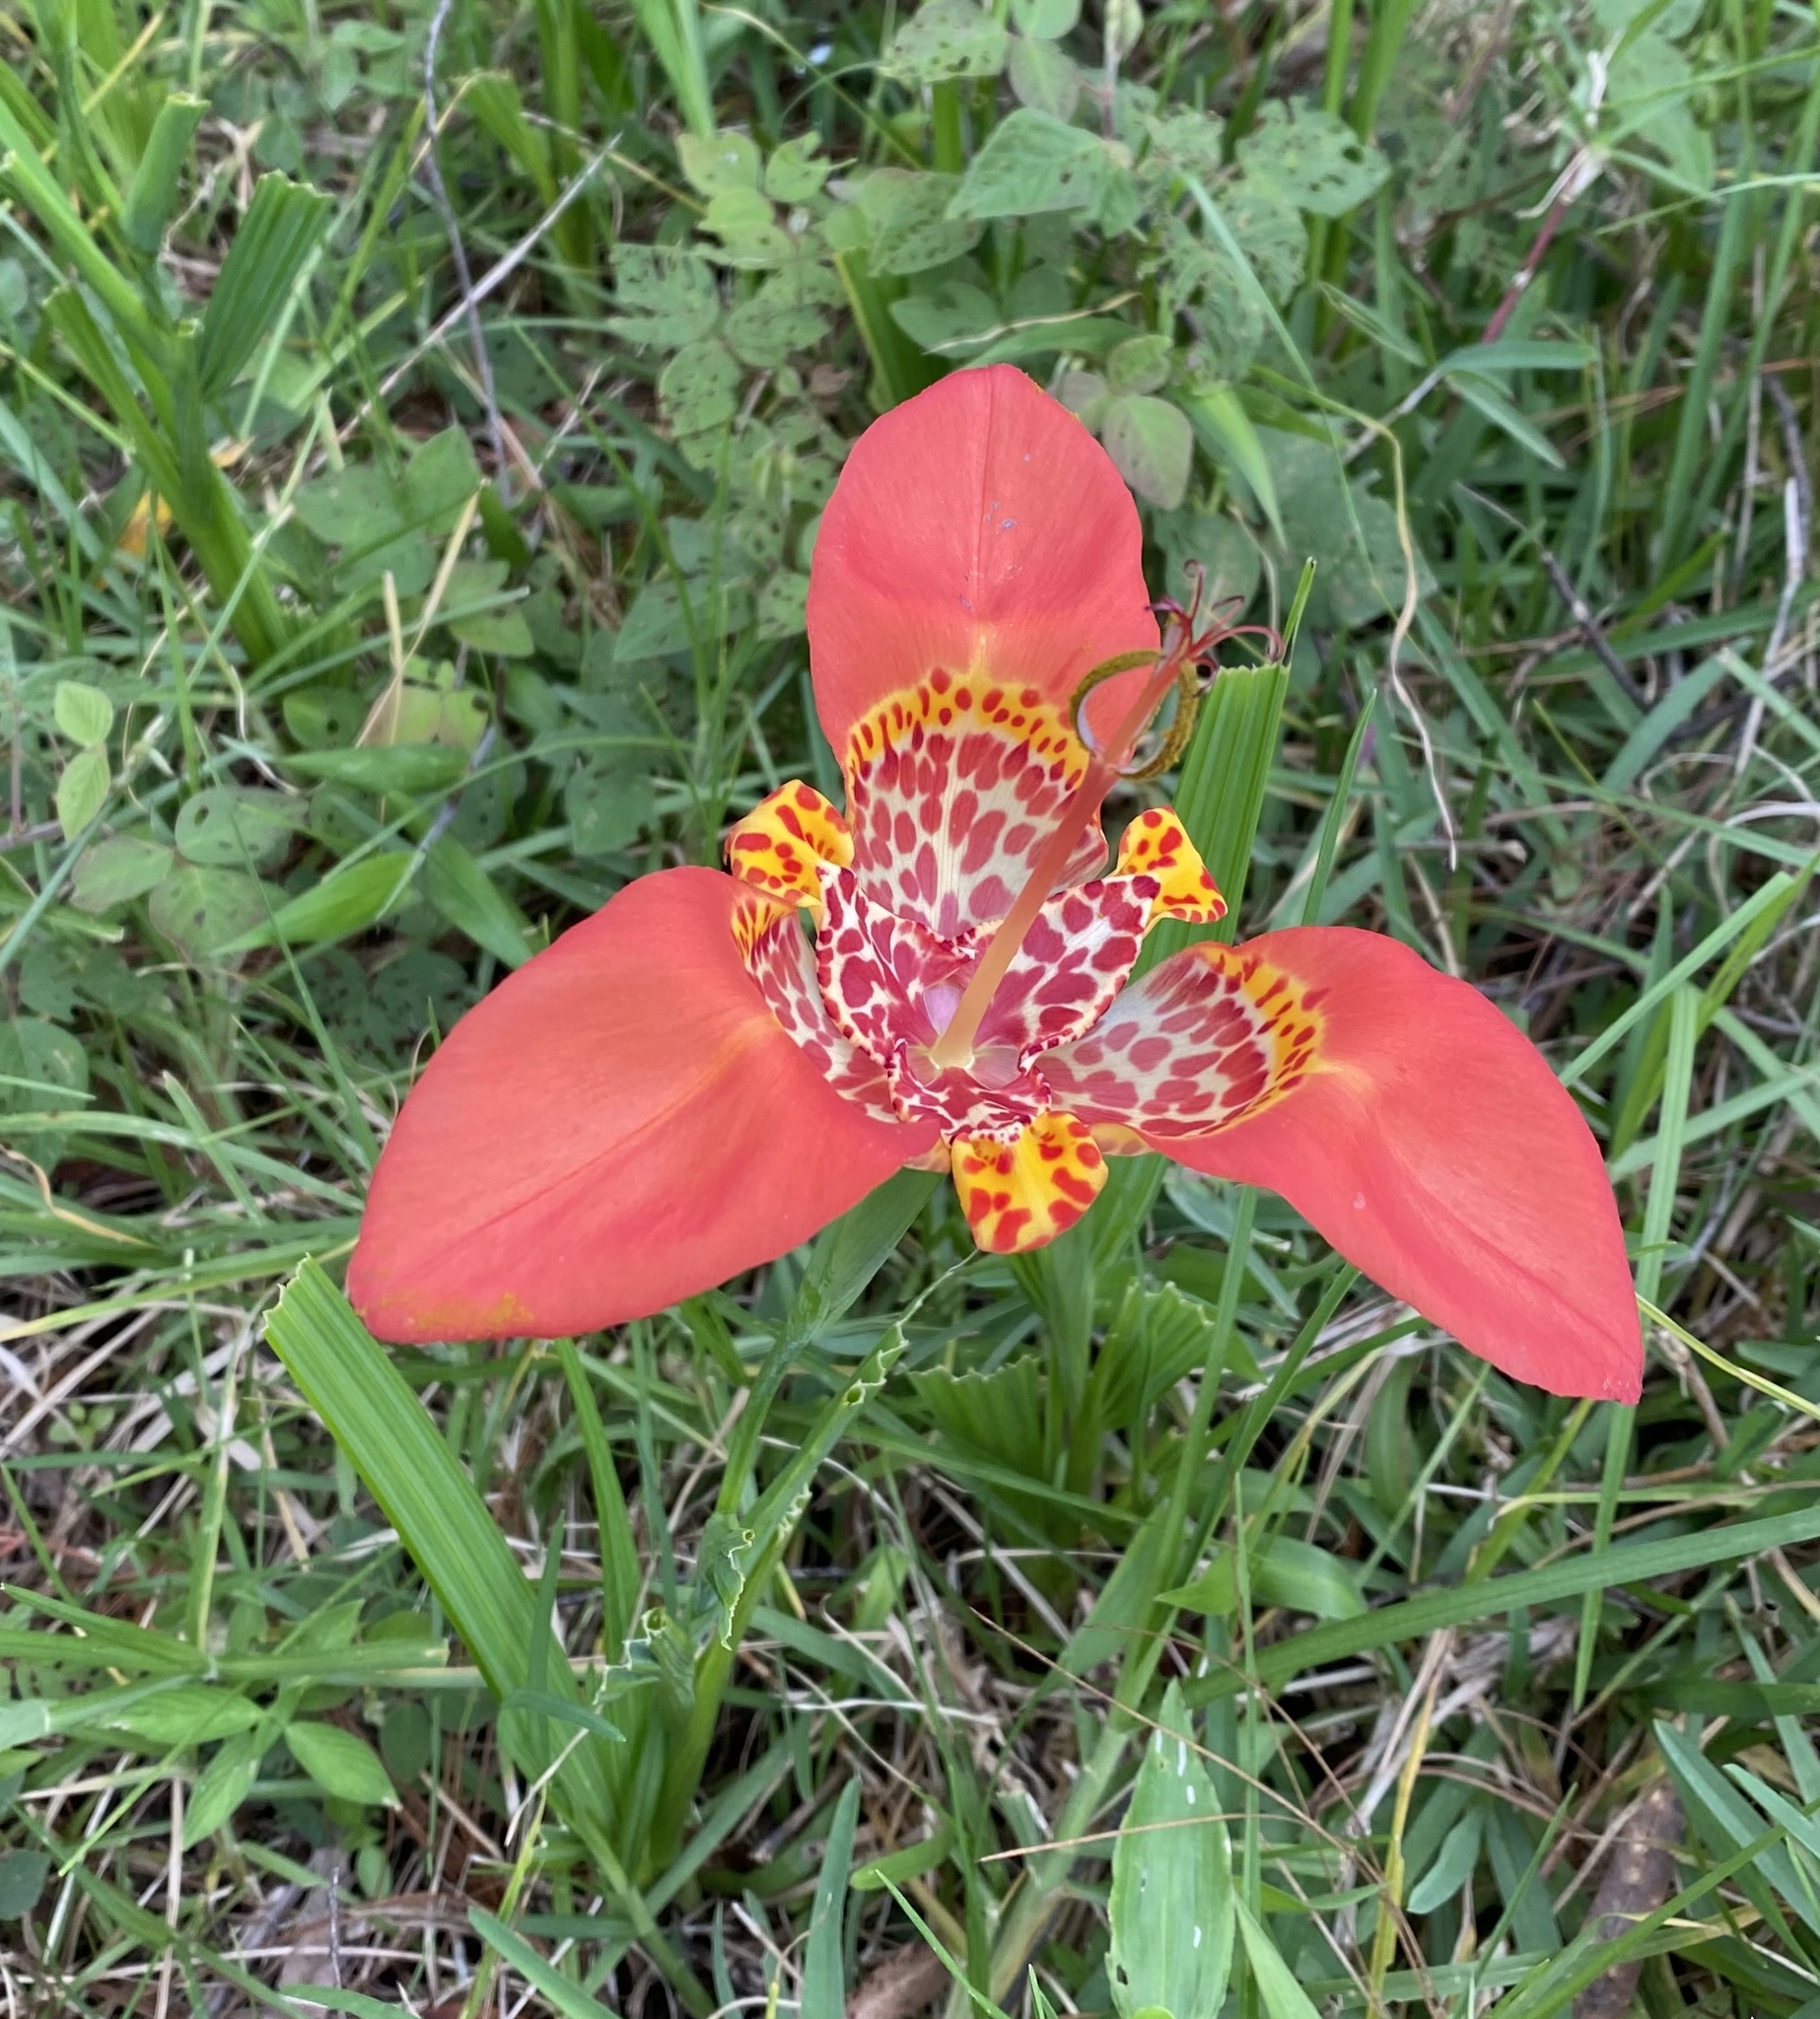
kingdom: Plantae
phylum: Tracheophyta
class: Liliopsida
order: Asparagales
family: Iridaceae
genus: Tigridia
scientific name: Tigridia pavonia
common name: Peacock-flower
